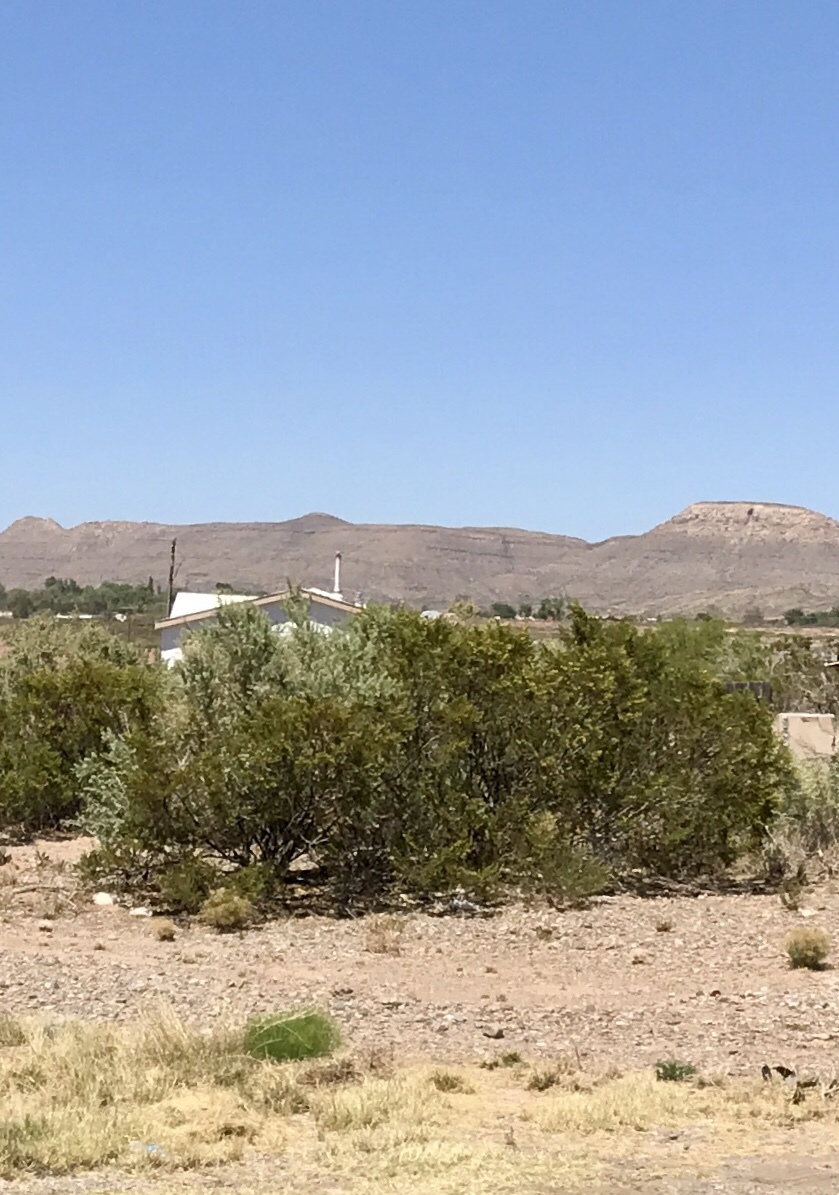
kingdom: Plantae
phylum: Tracheophyta
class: Magnoliopsida
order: Zygophyllales
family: Zygophyllaceae
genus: Larrea
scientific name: Larrea tridentata
